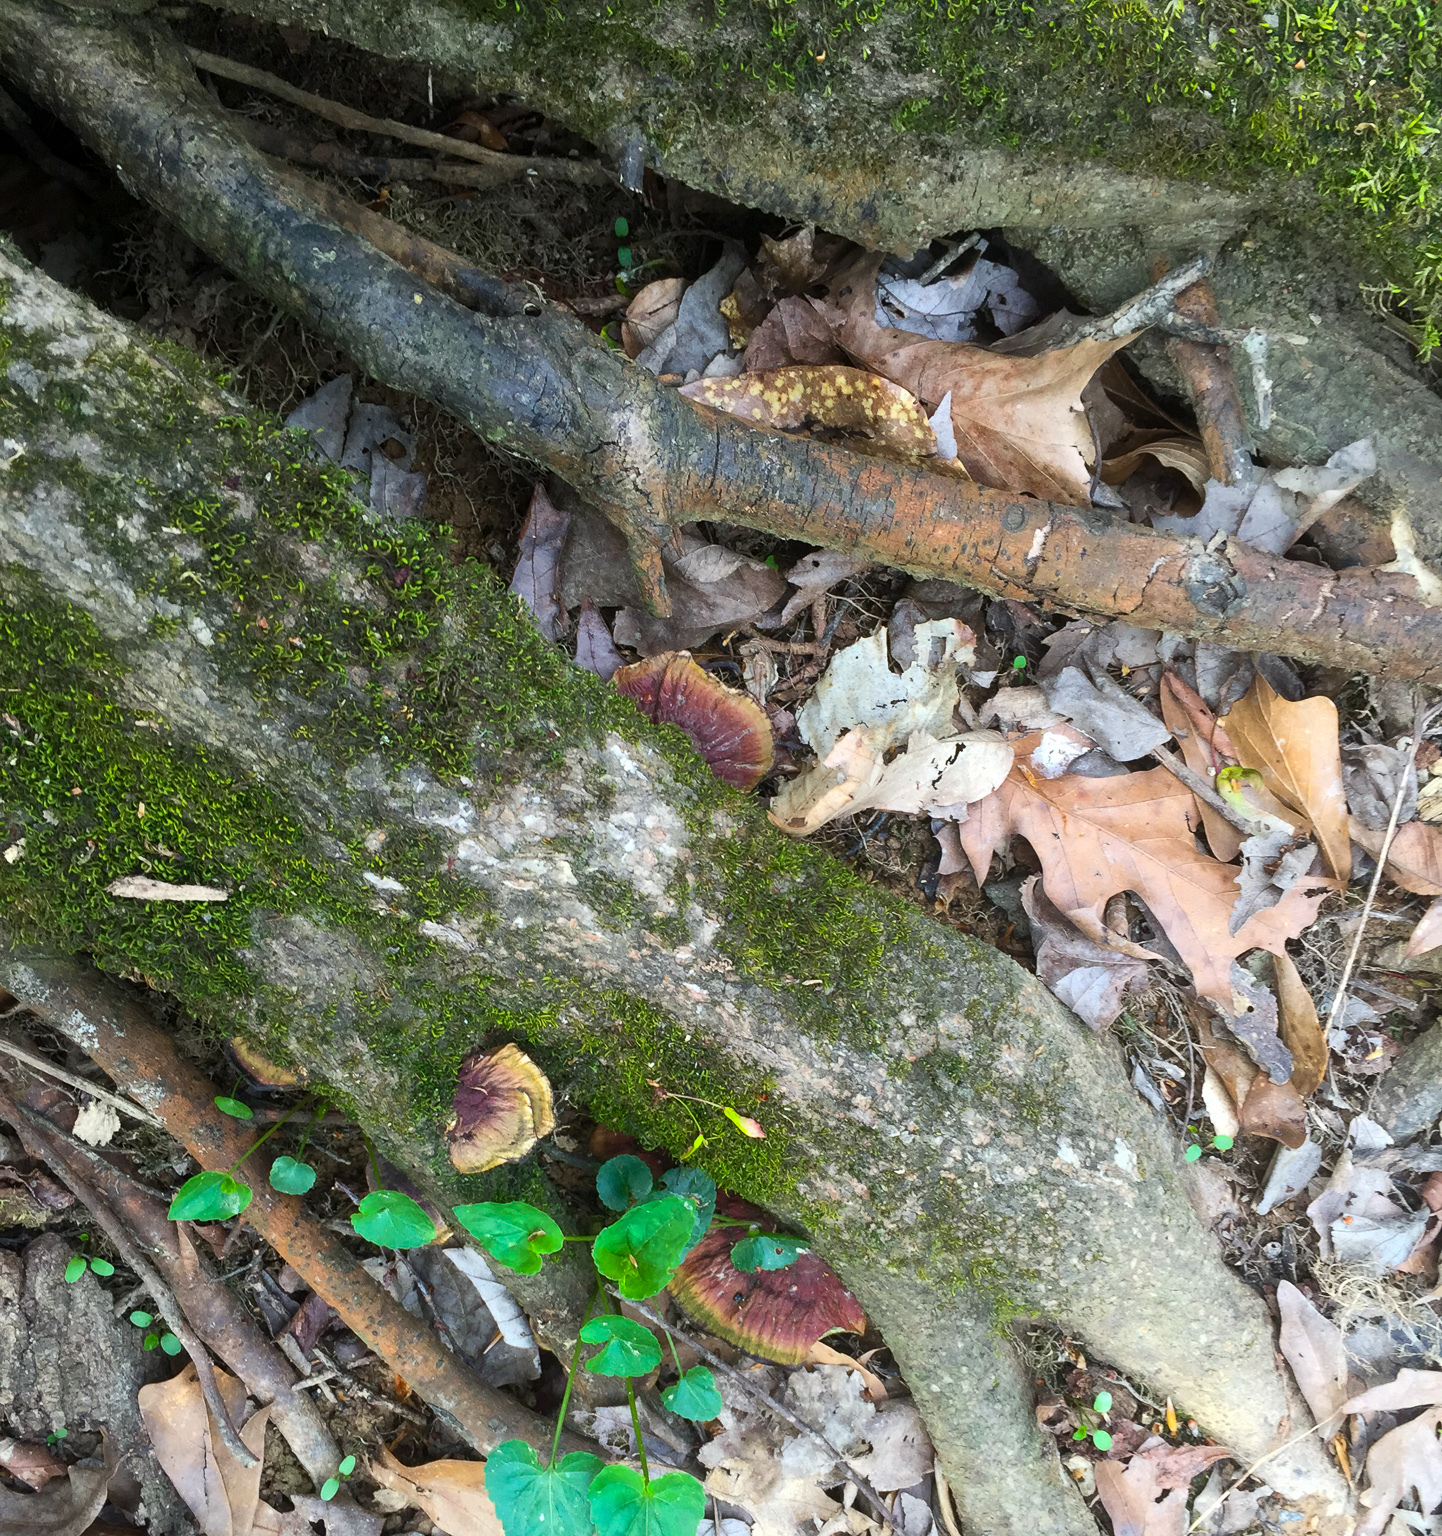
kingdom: Fungi
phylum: Basidiomycota
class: Agaricomycetes
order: Polyporales
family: Polyporaceae
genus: Ganoderma
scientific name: Ganoderma resinaceum
